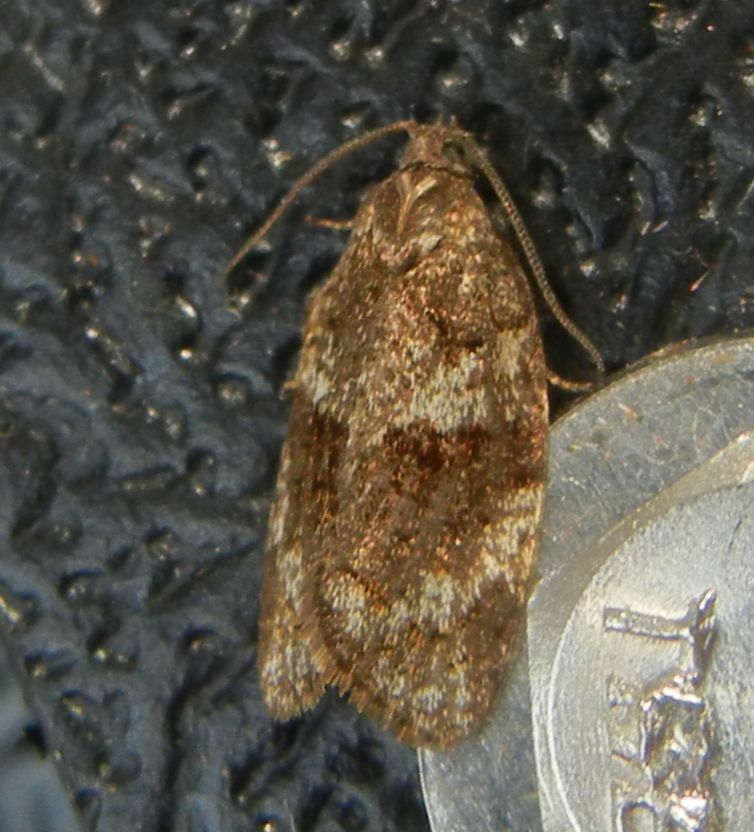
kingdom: Animalia
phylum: Arthropoda
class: Insecta
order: Lepidoptera
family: Tortricidae
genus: Syndemis
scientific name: Syndemis musculana
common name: Dark-barred twist
